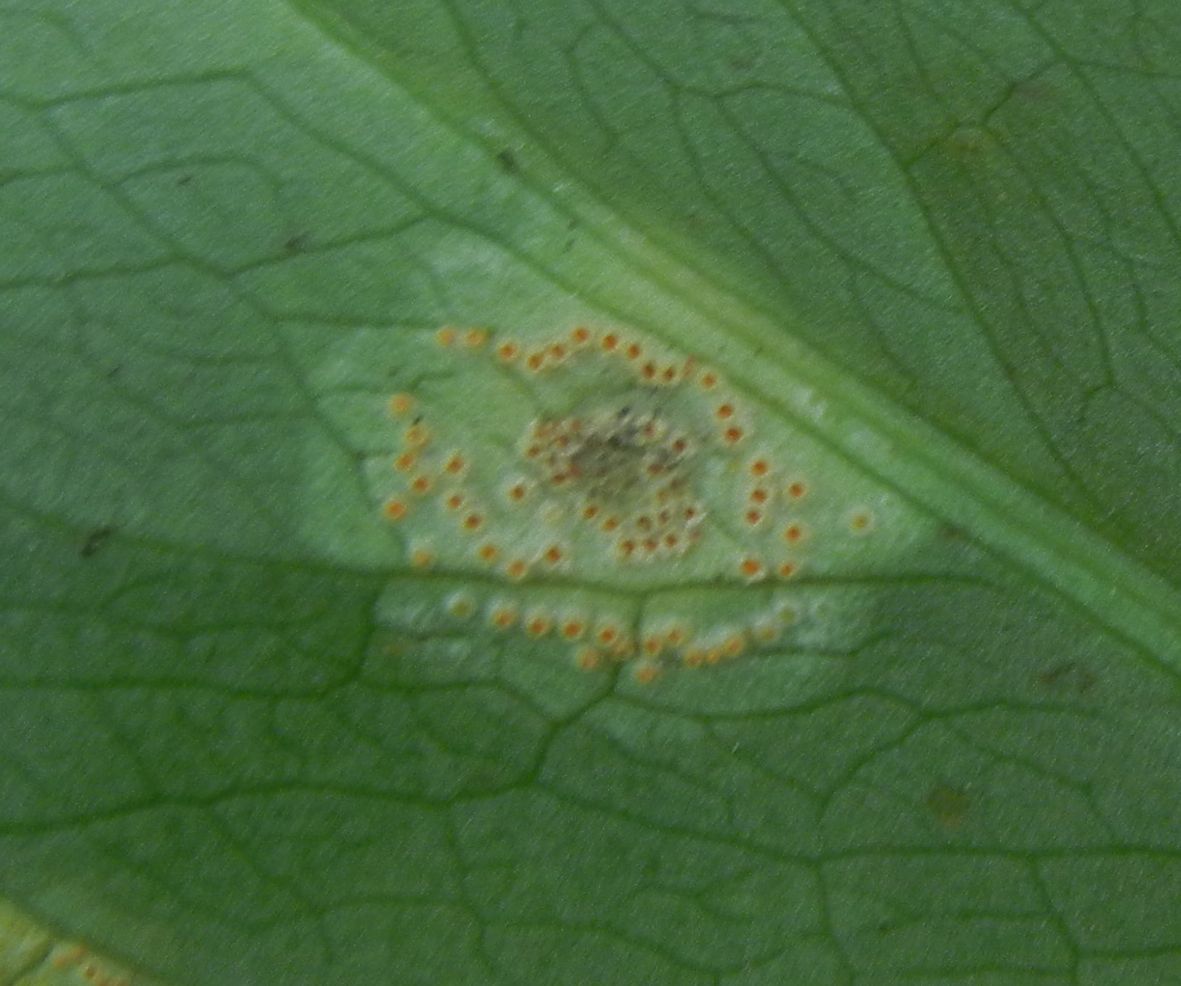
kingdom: Fungi
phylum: Basidiomycota
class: Pucciniomycetes
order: Pucciniales
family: Pucciniaceae
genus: Puccinia
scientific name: Puccinia sessilis
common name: Arum rust
